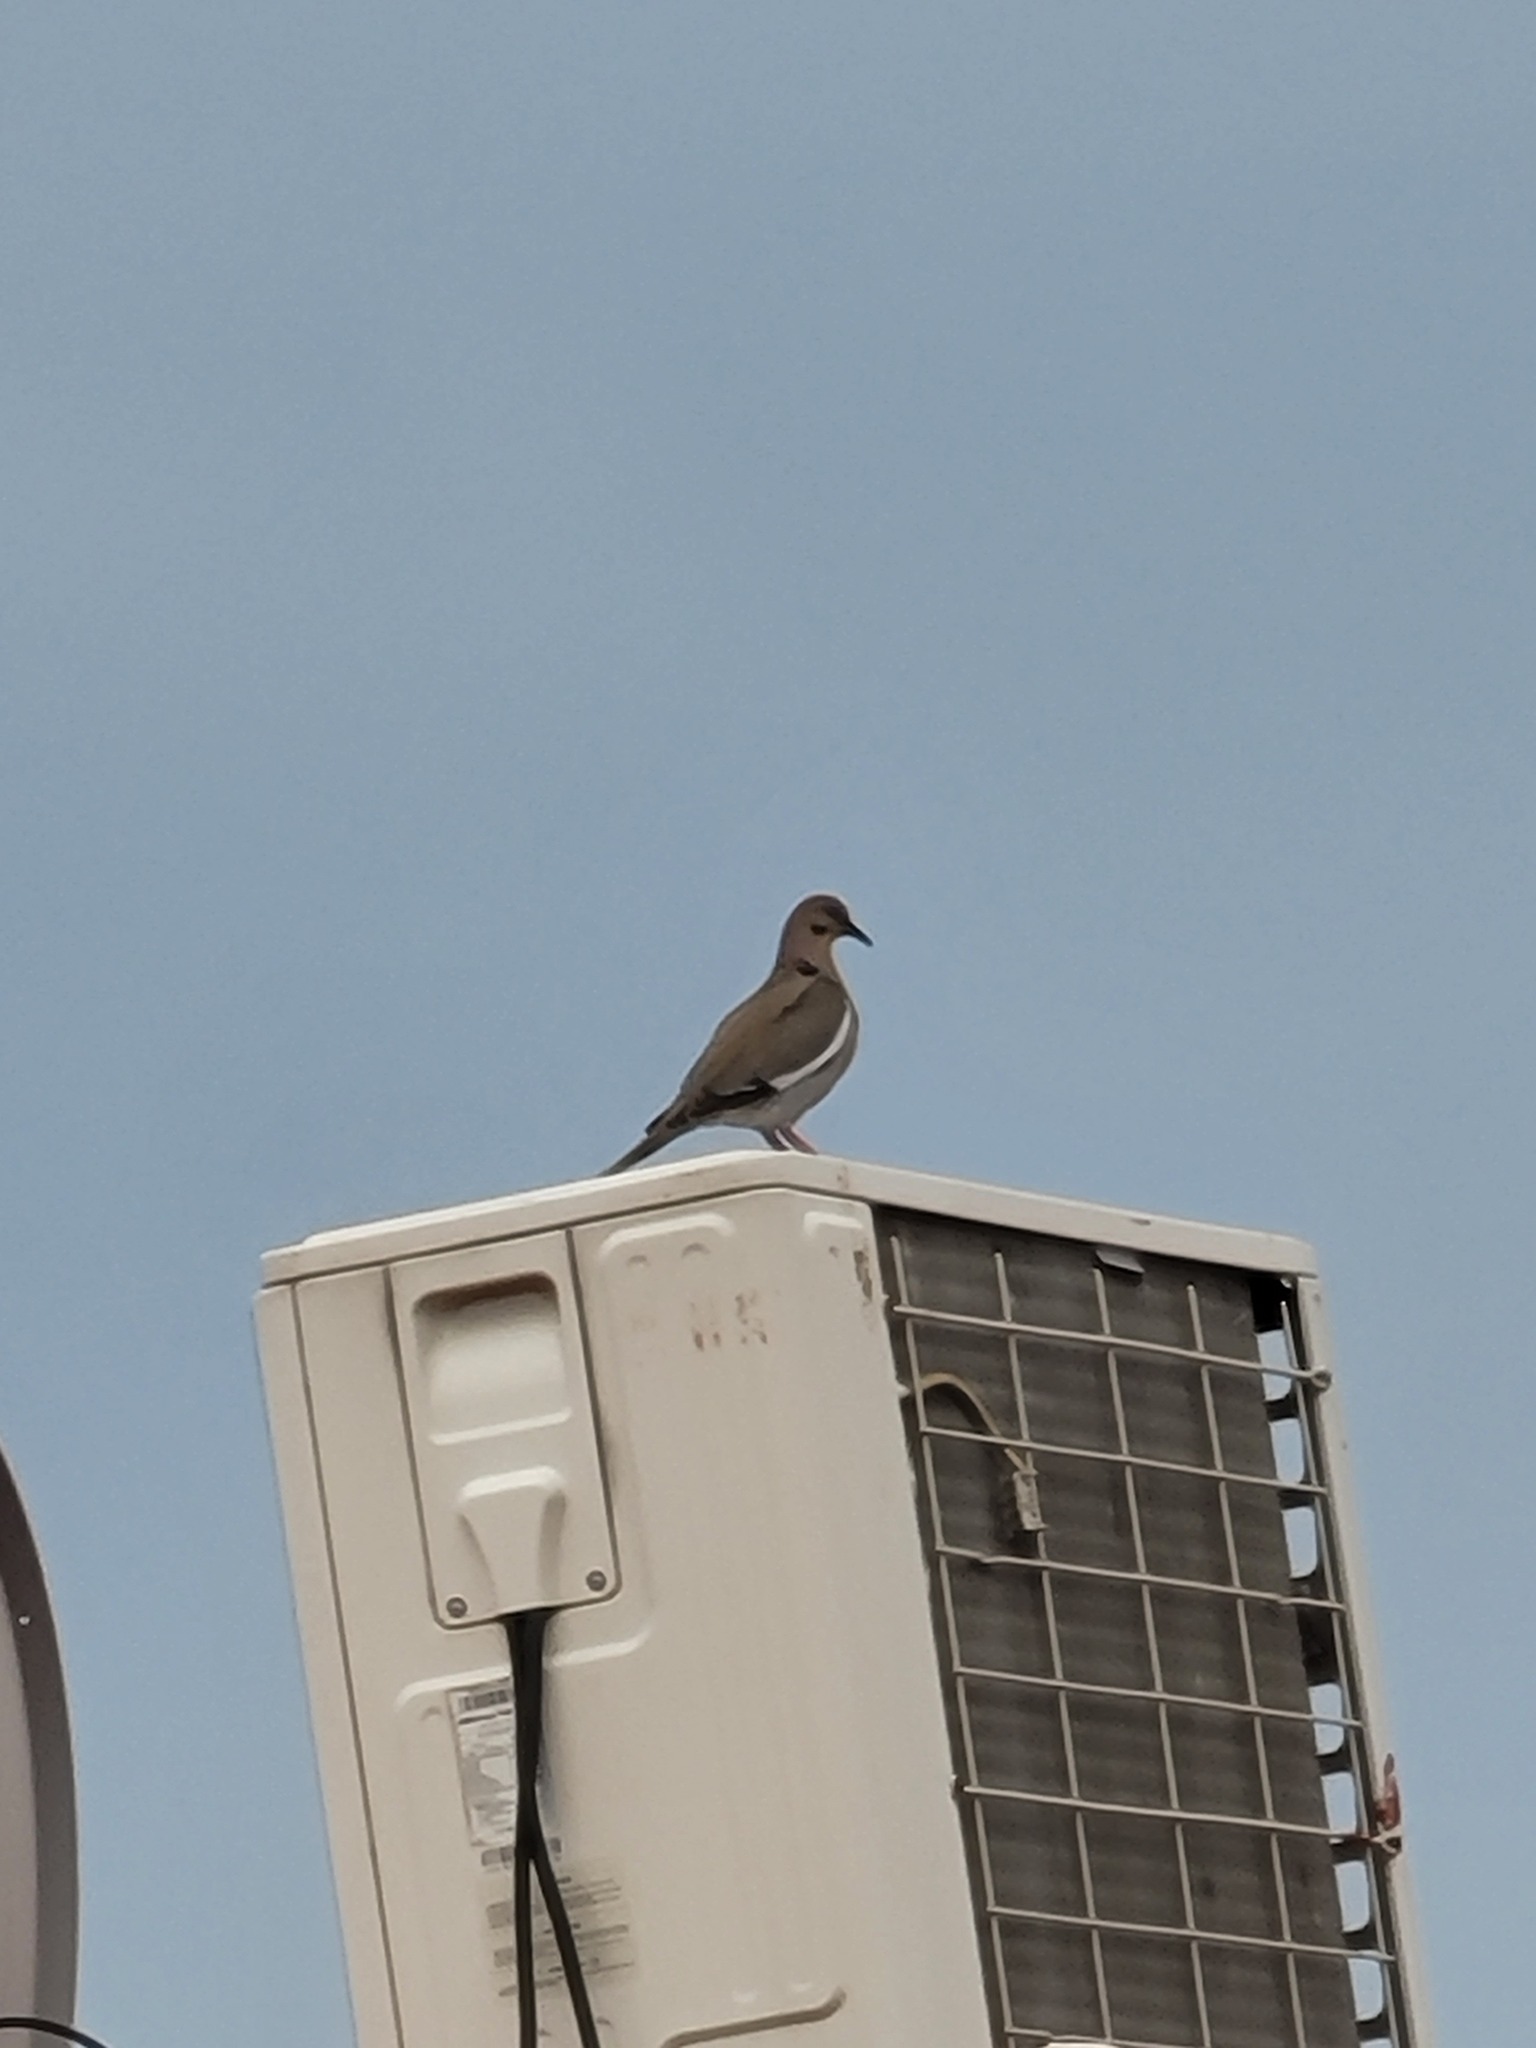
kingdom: Animalia
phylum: Chordata
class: Aves
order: Columbiformes
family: Columbidae
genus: Zenaida
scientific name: Zenaida asiatica
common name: White-winged dove
